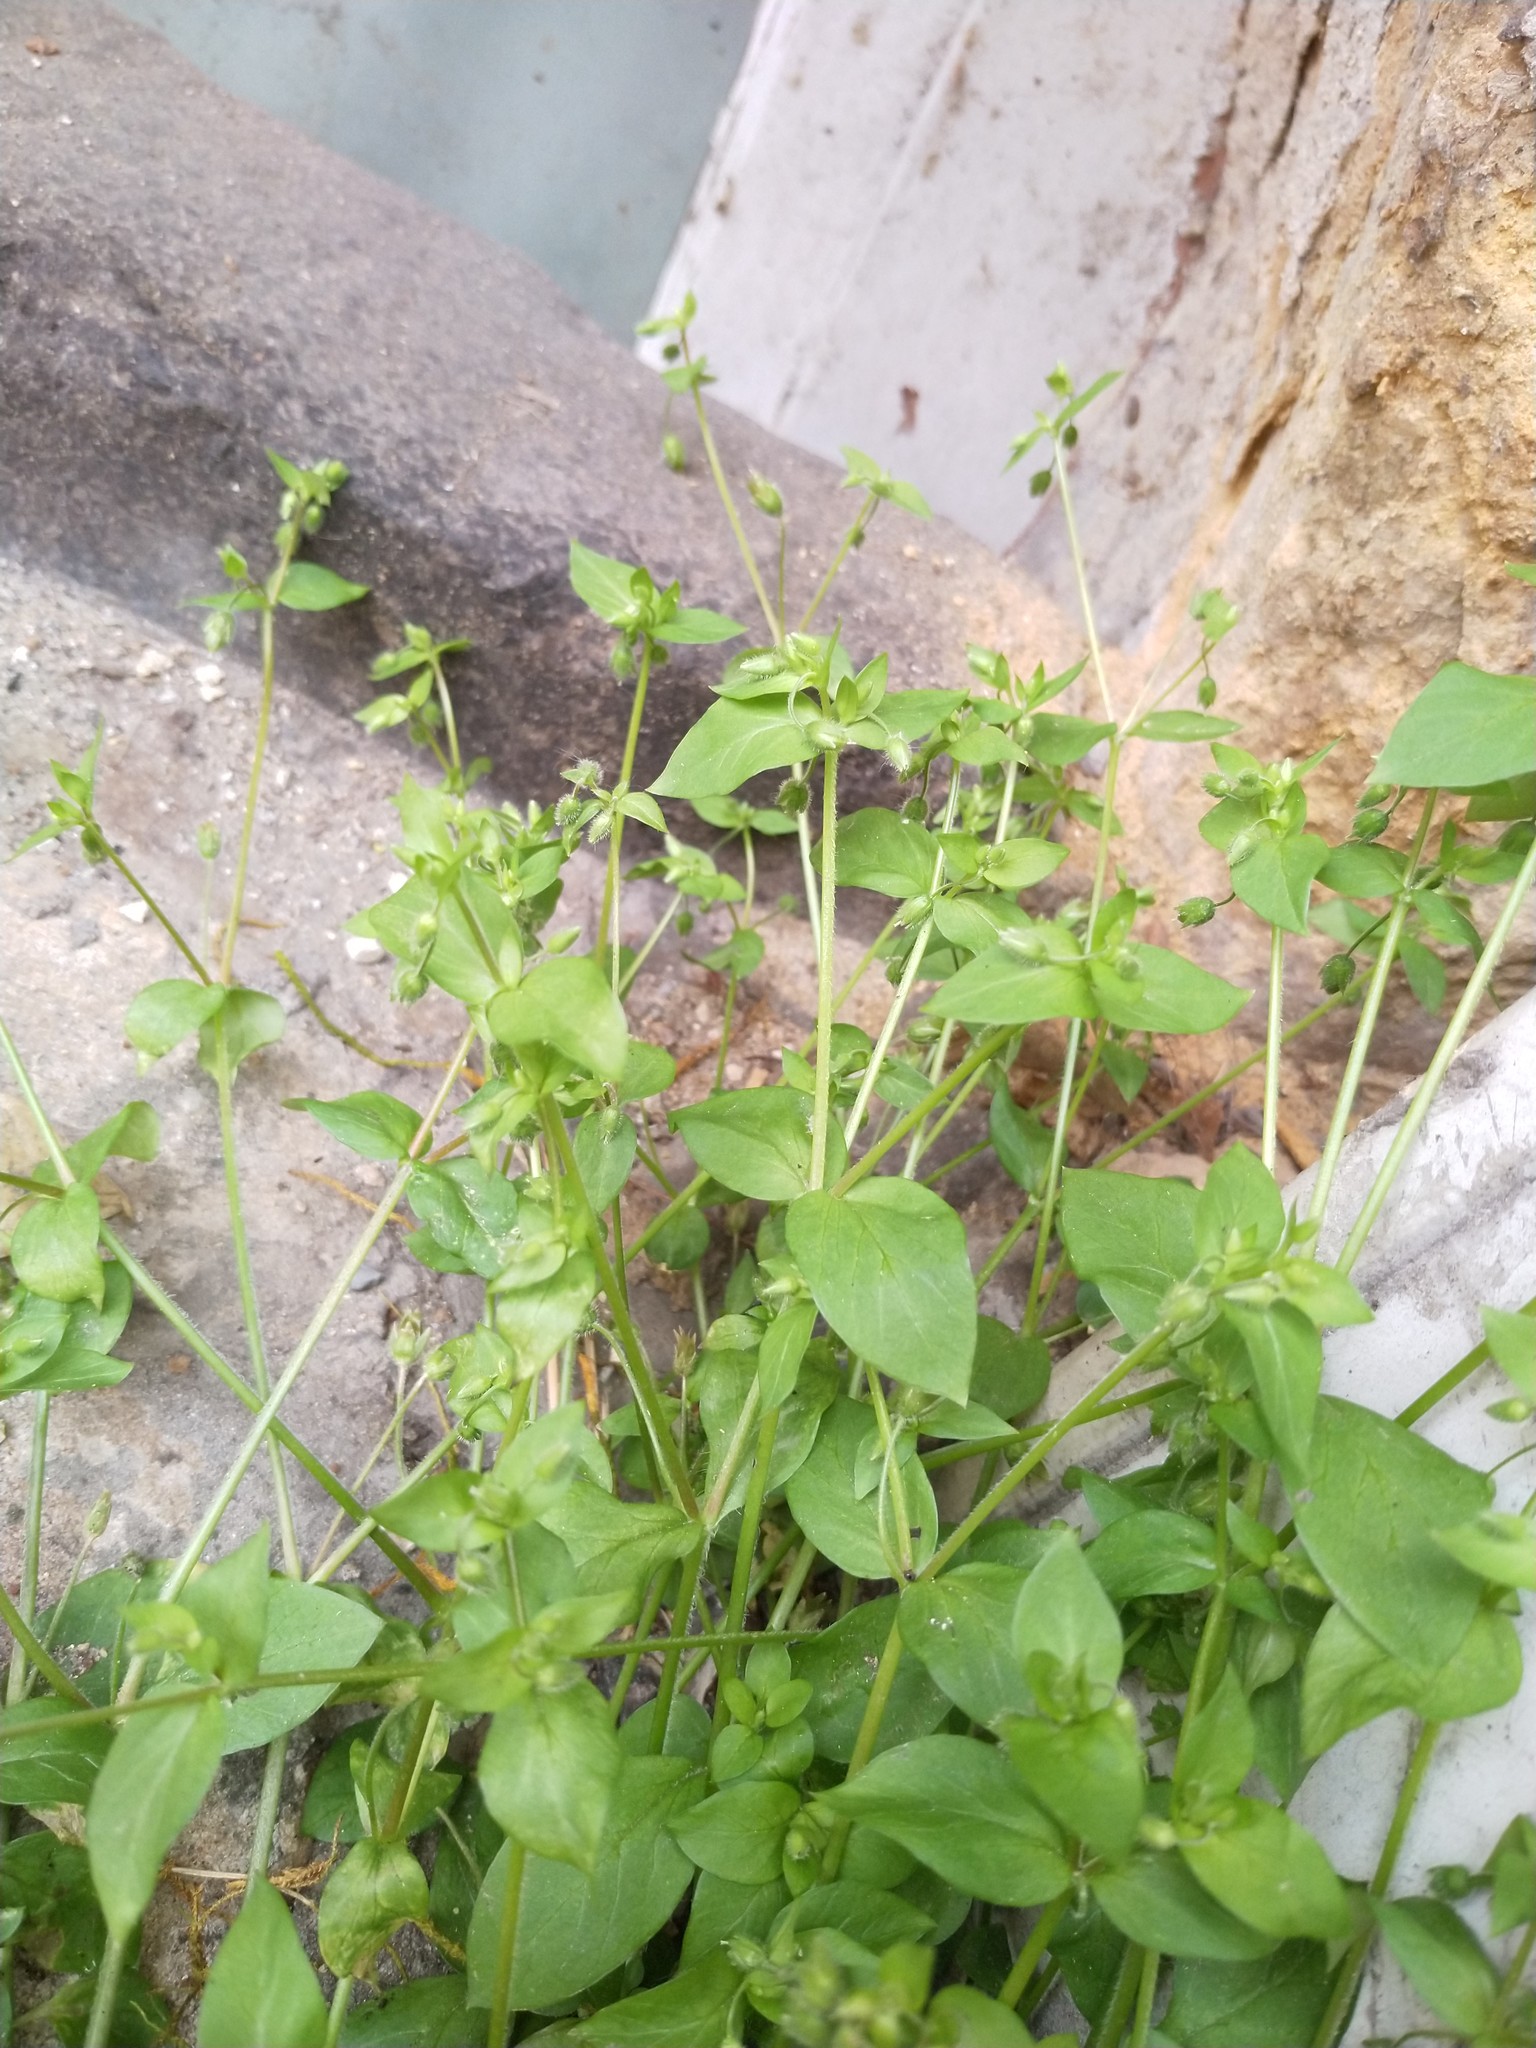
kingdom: Plantae
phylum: Tracheophyta
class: Magnoliopsida
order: Caryophyllales
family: Caryophyllaceae
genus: Stellaria
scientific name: Stellaria media
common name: Common chickweed
